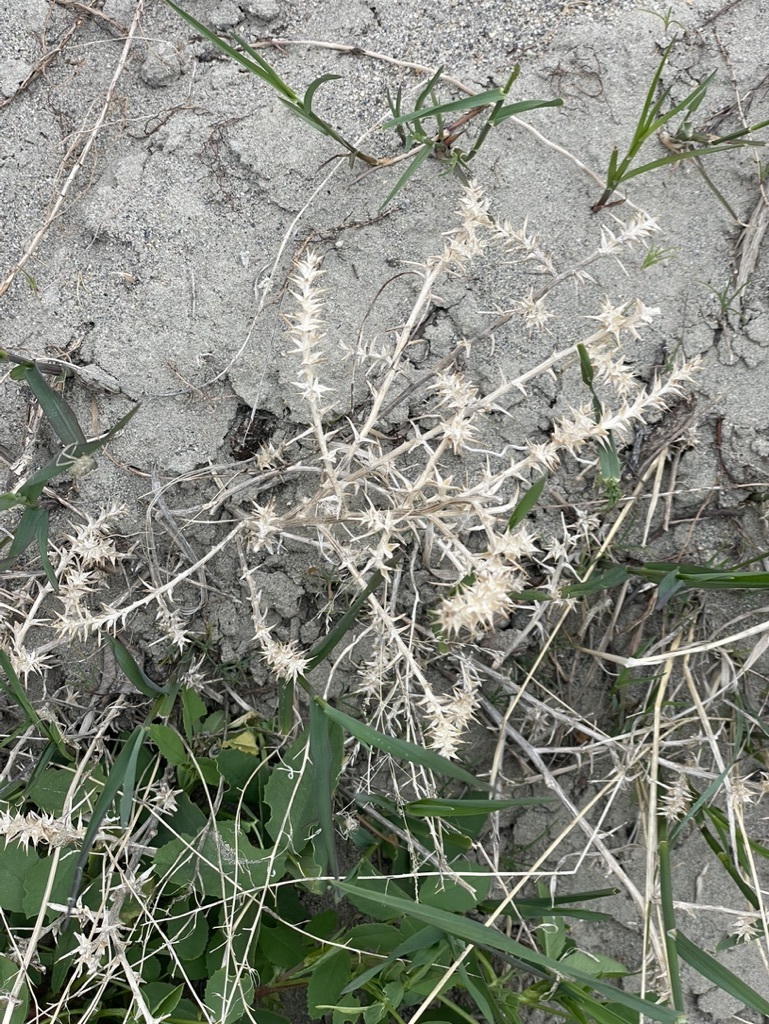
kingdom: Plantae
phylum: Tracheophyta
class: Magnoliopsida
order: Caryophyllales
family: Amaranthaceae
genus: Salsola
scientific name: Salsola tragus
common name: Prickly russian thistle
